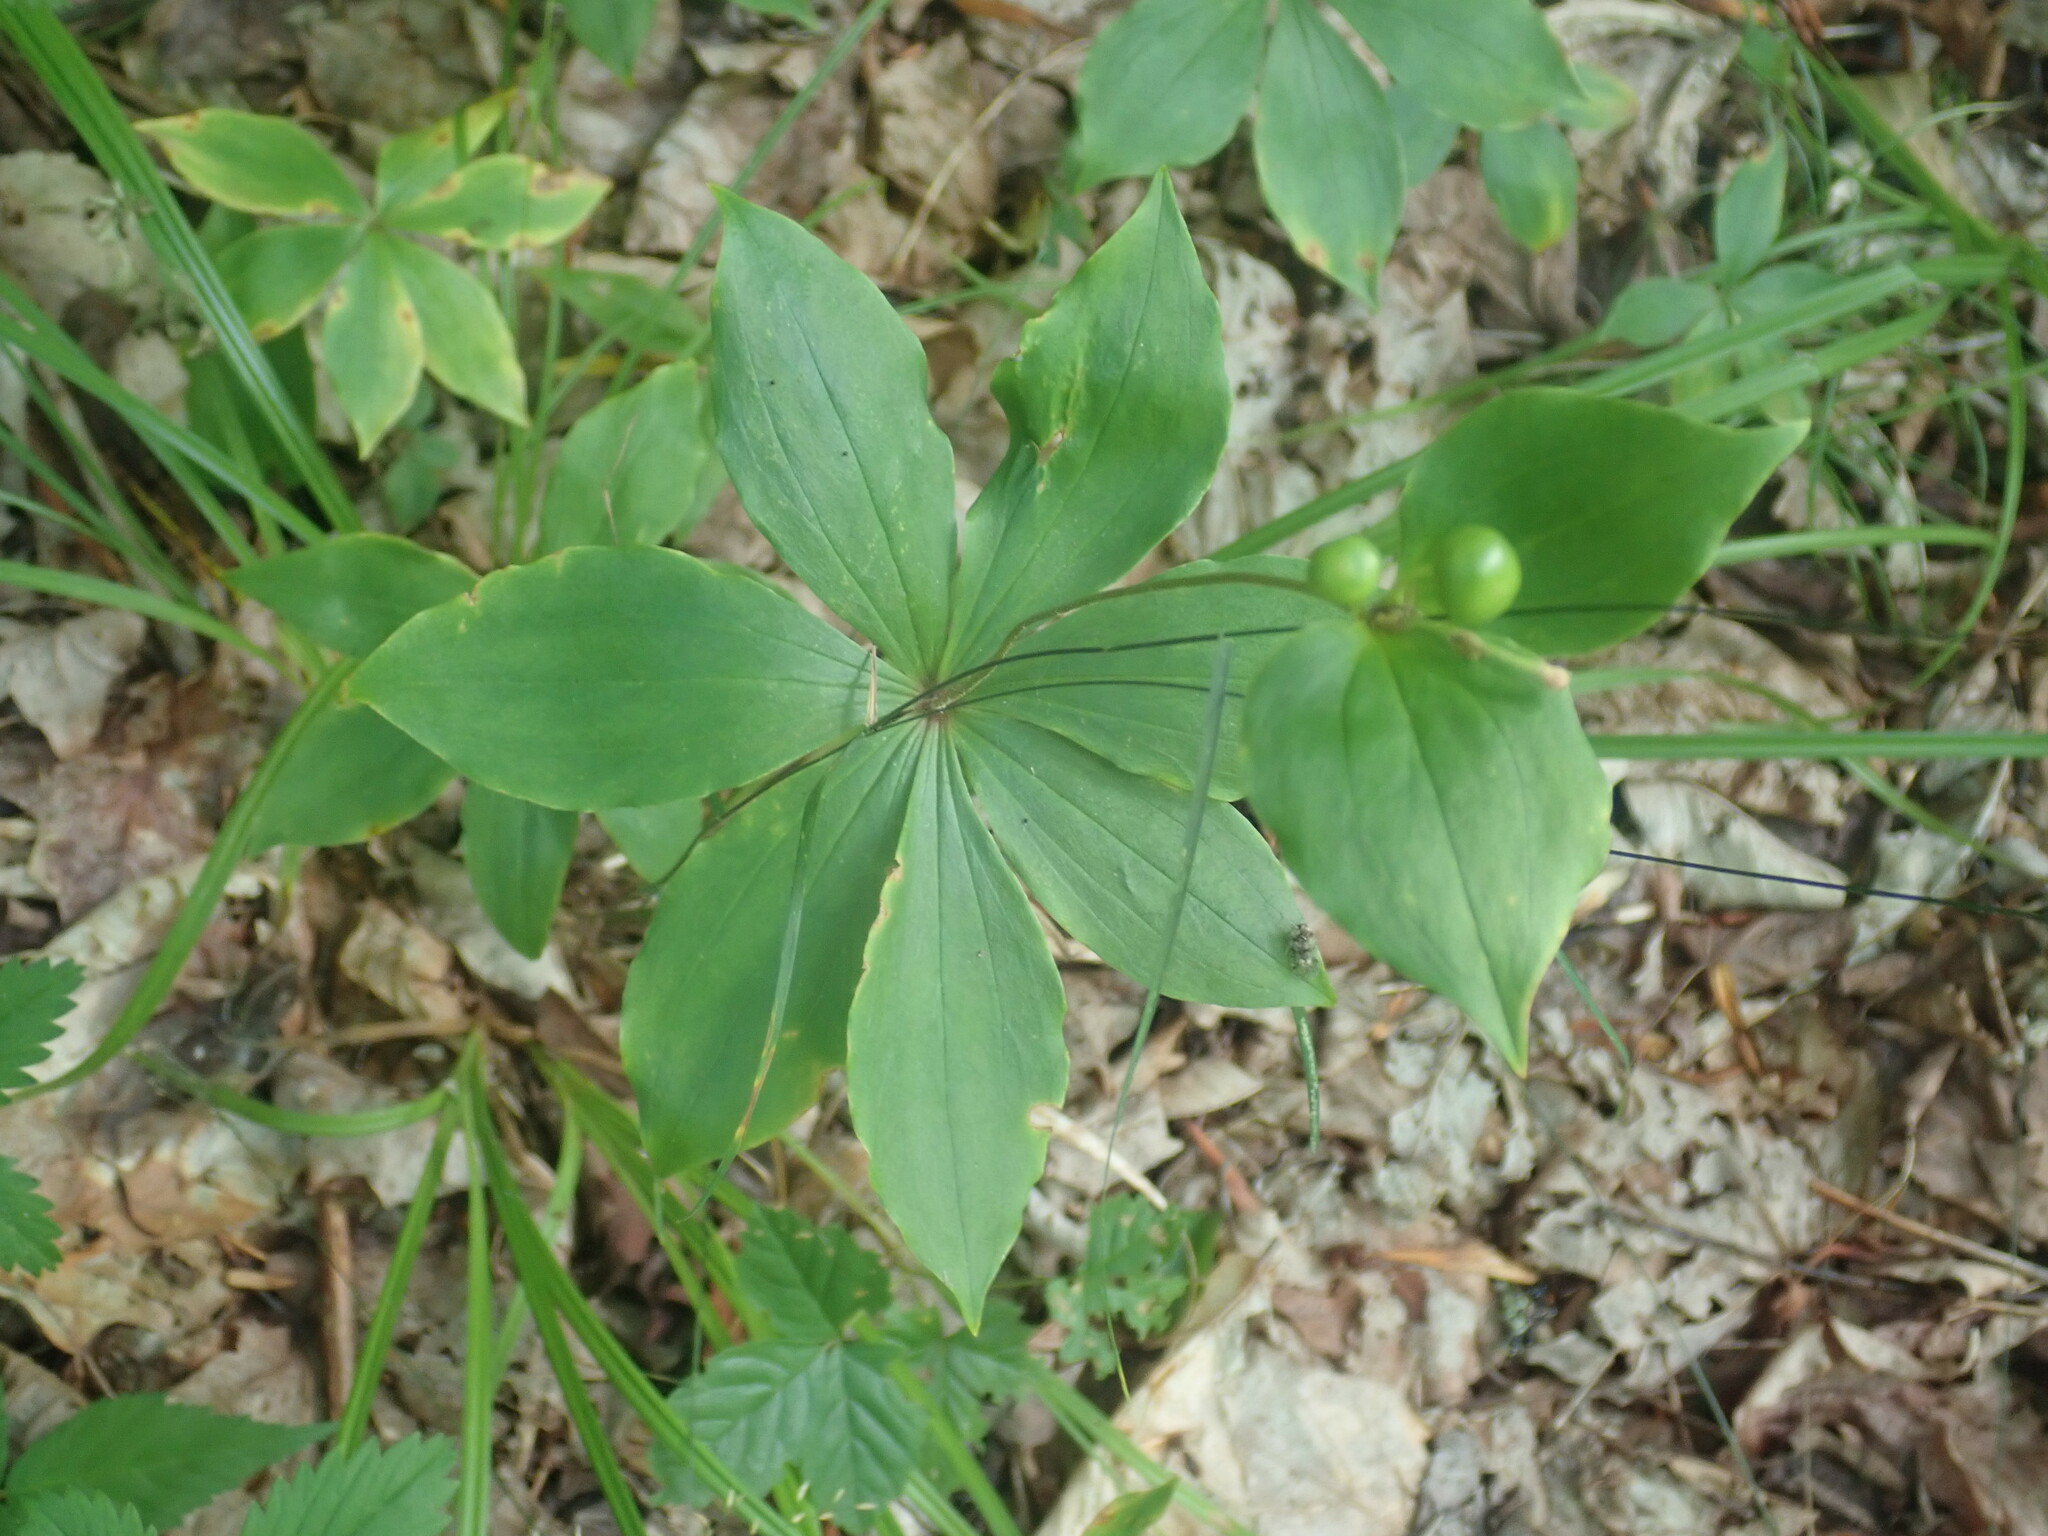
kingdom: Plantae
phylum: Tracheophyta
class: Liliopsida
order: Liliales
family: Liliaceae
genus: Medeola
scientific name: Medeola virginiana
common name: Indian cucumber-root
